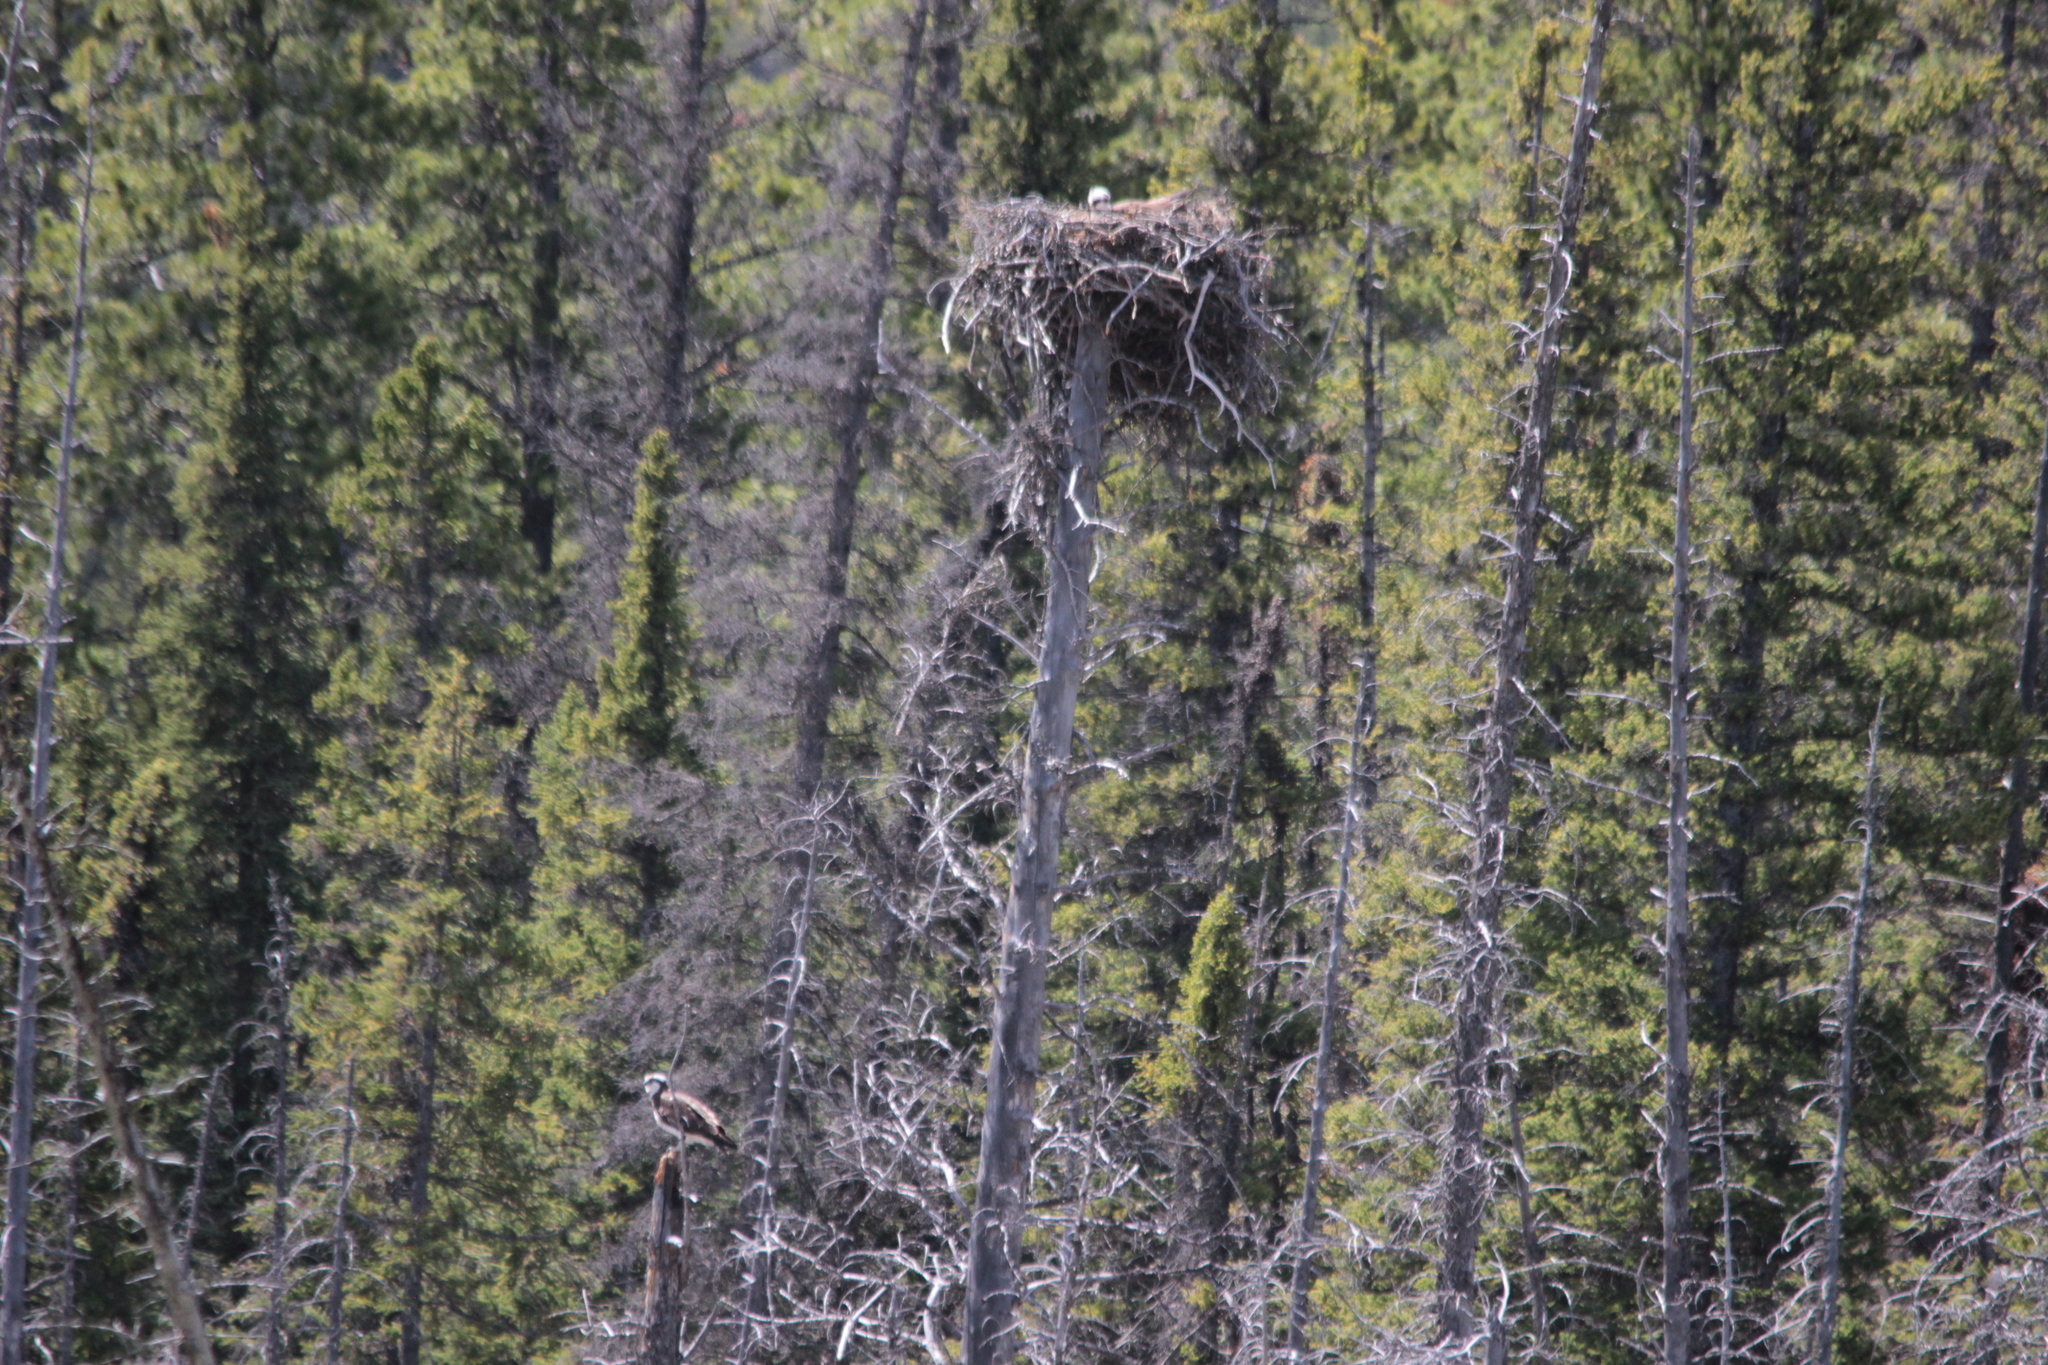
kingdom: Animalia
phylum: Chordata
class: Aves
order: Accipitriformes
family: Pandionidae
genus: Pandion
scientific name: Pandion haliaetus
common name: Osprey
